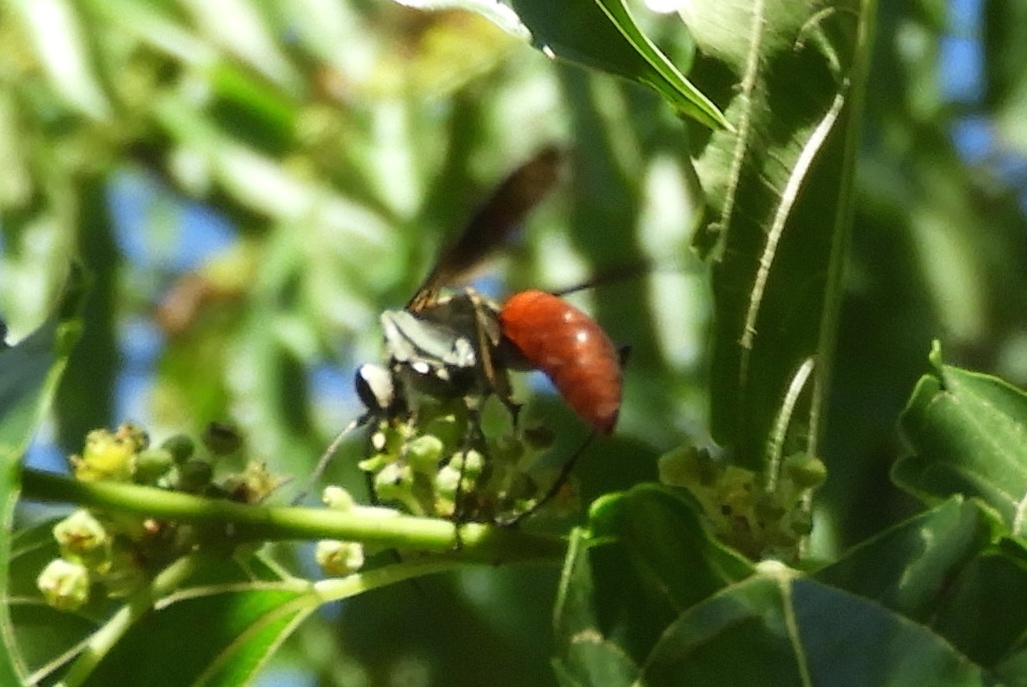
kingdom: Animalia
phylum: Arthropoda
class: Insecta
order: Hymenoptera
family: Pompilidae
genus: Xerochares
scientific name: Xerochares expulsus
